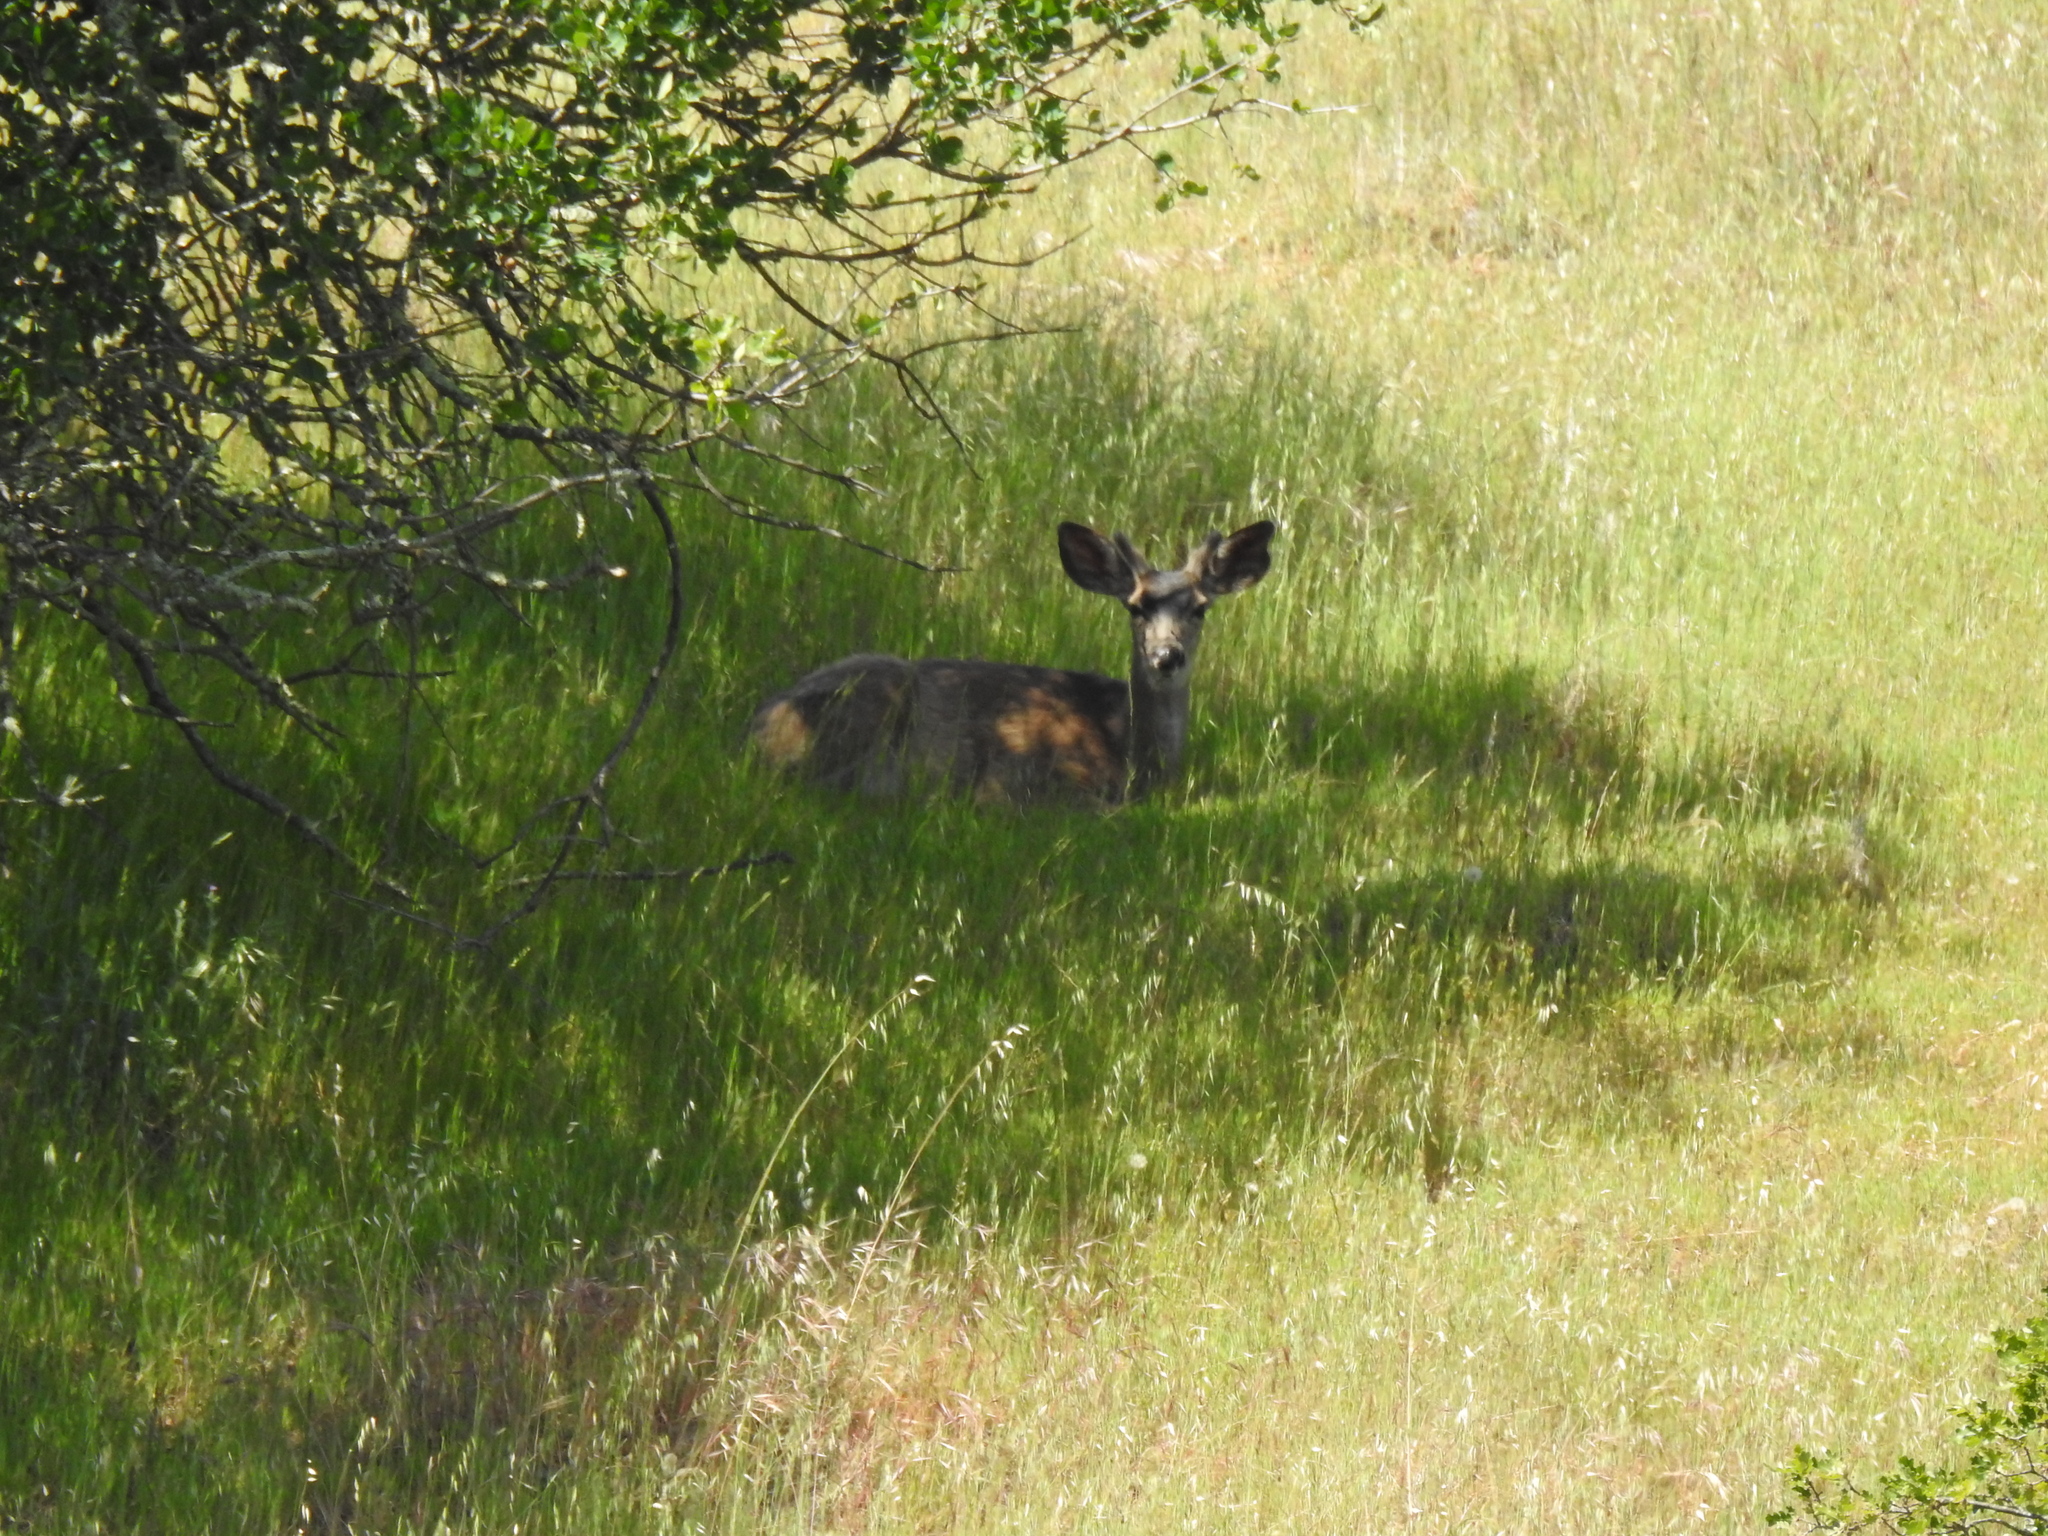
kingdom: Animalia
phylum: Chordata
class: Mammalia
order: Artiodactyla
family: Cervidae
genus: Odocoileus
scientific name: Odocoileus hemionus
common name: Mule deer
